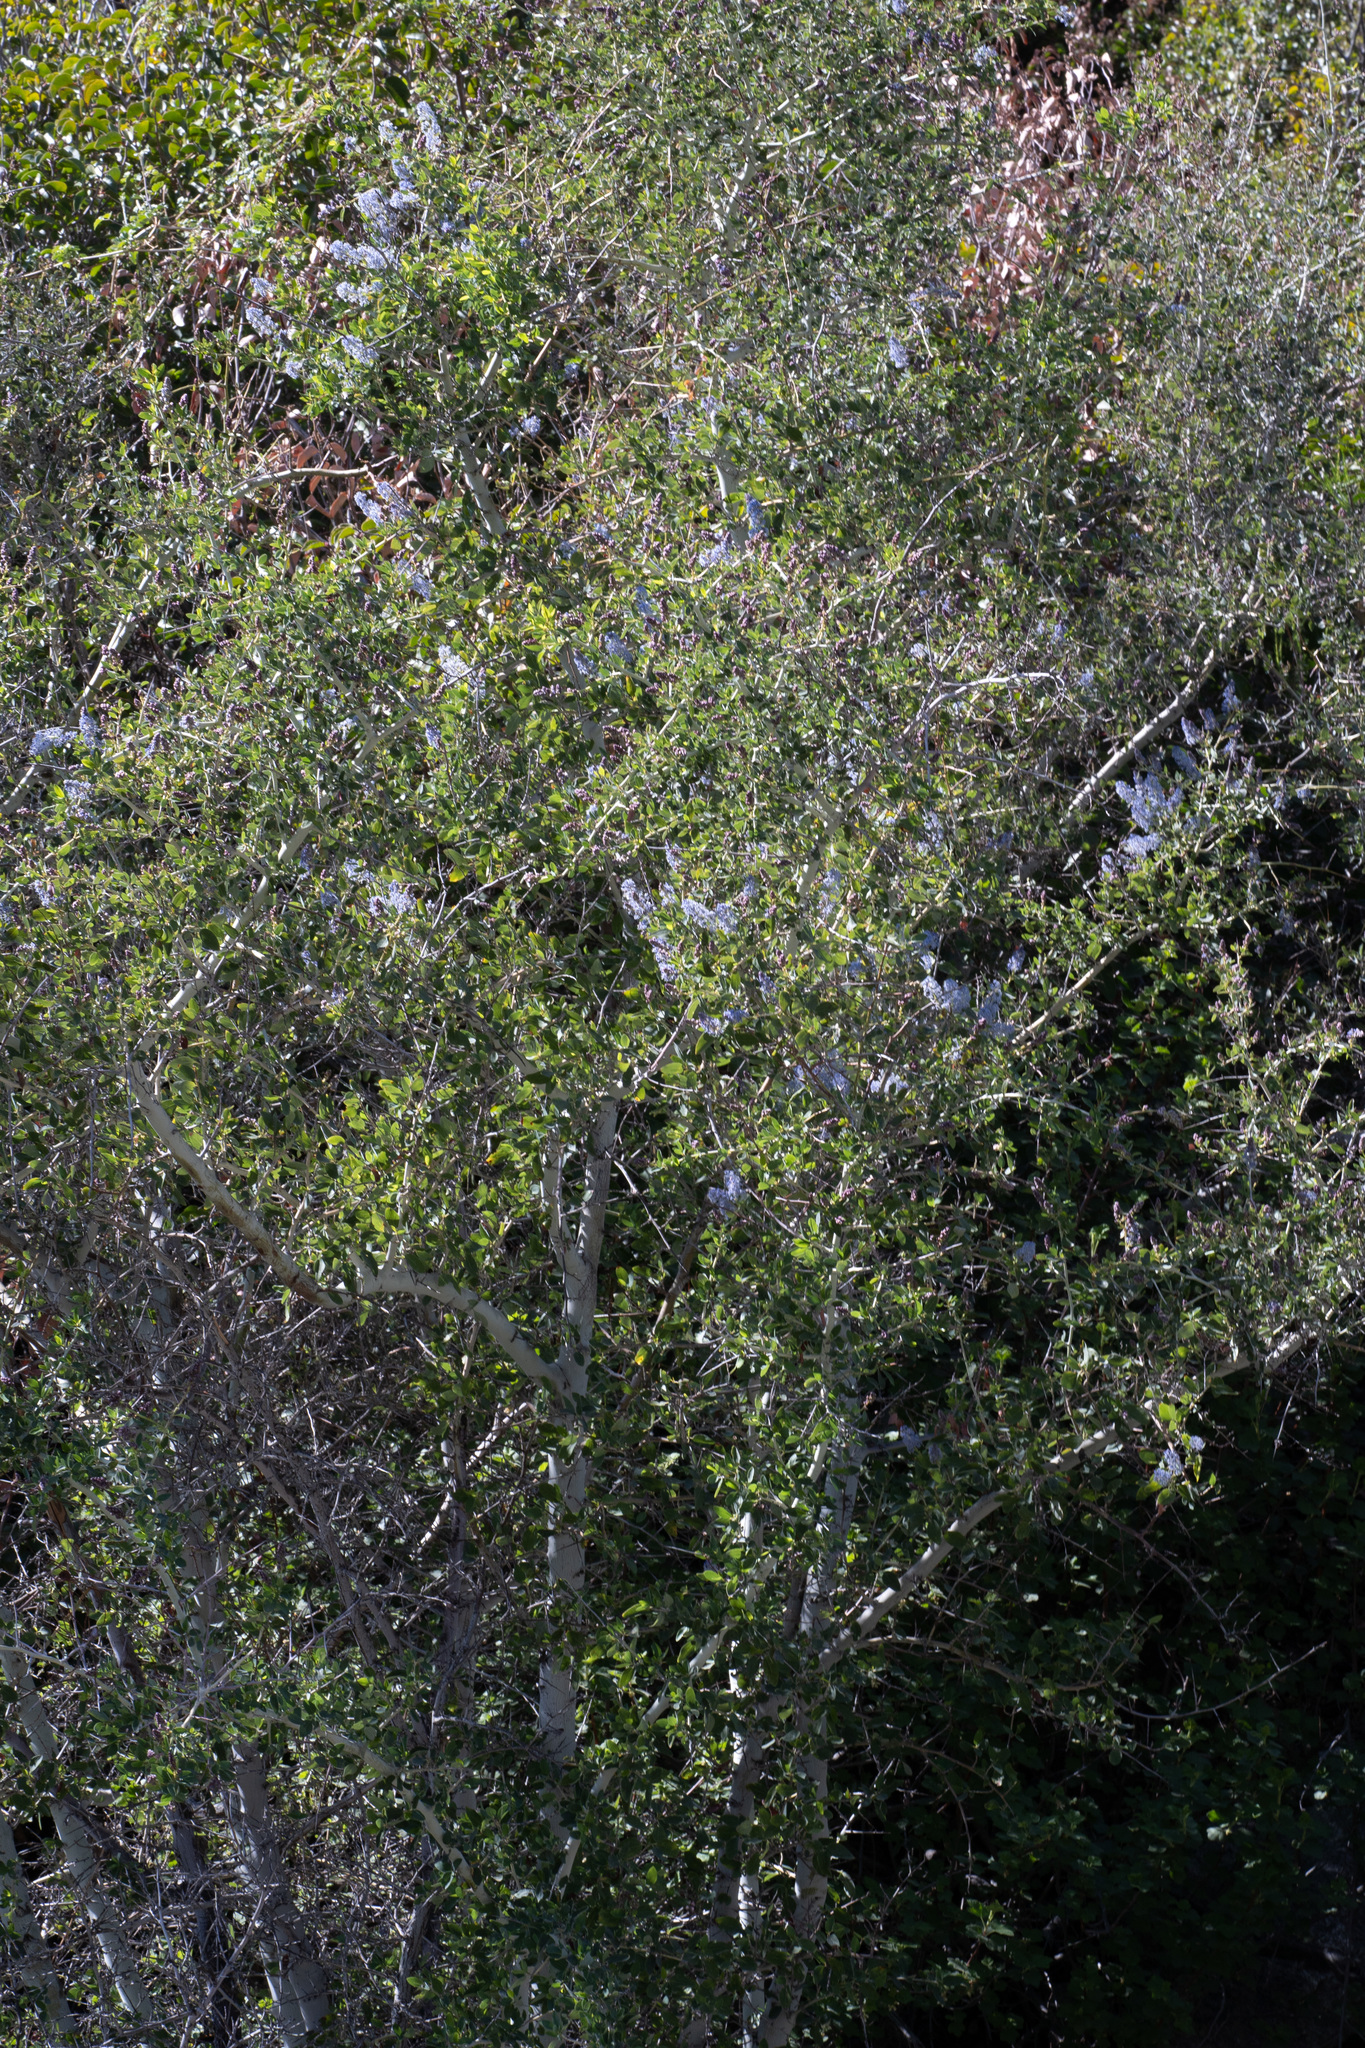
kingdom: Plantae
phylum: Tracheophyta
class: Magnoliopsida
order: Rosales
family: Rhamnaceae
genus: Ceanothus
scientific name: Ceanothus leucodermis
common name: Chaparral whitethorn
